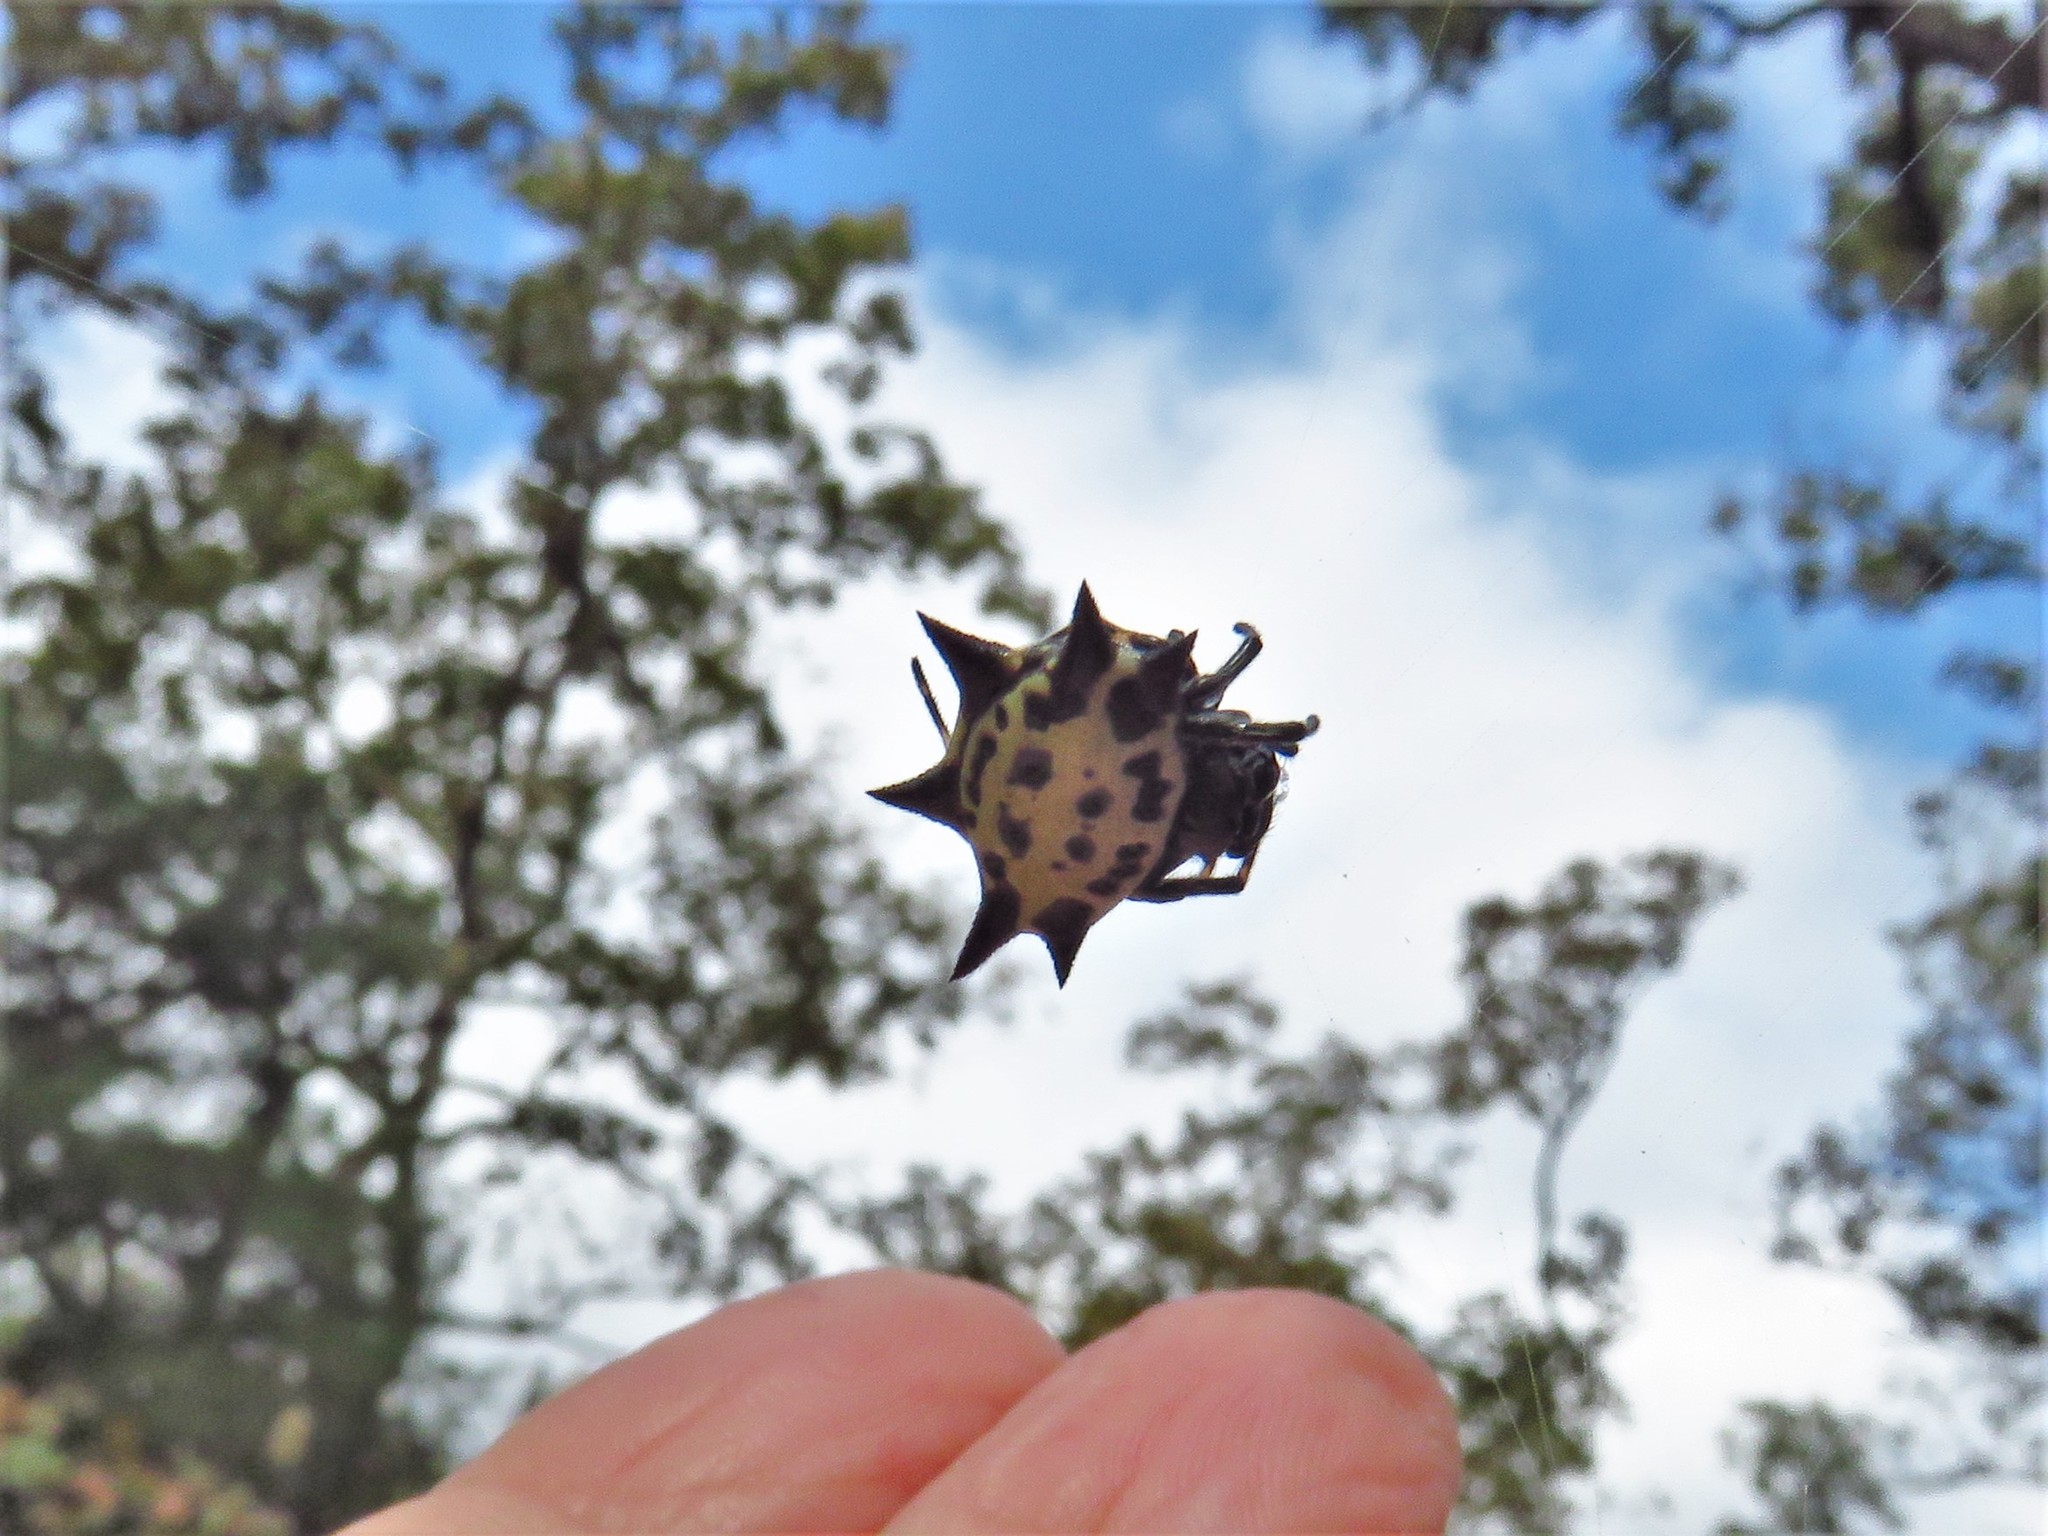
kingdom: Animalia
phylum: Arthropoda
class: Arachnida
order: Araneae
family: Araneidae
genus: Gasteracantha
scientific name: Gasteracantha cancriformis
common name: Orb weavers
